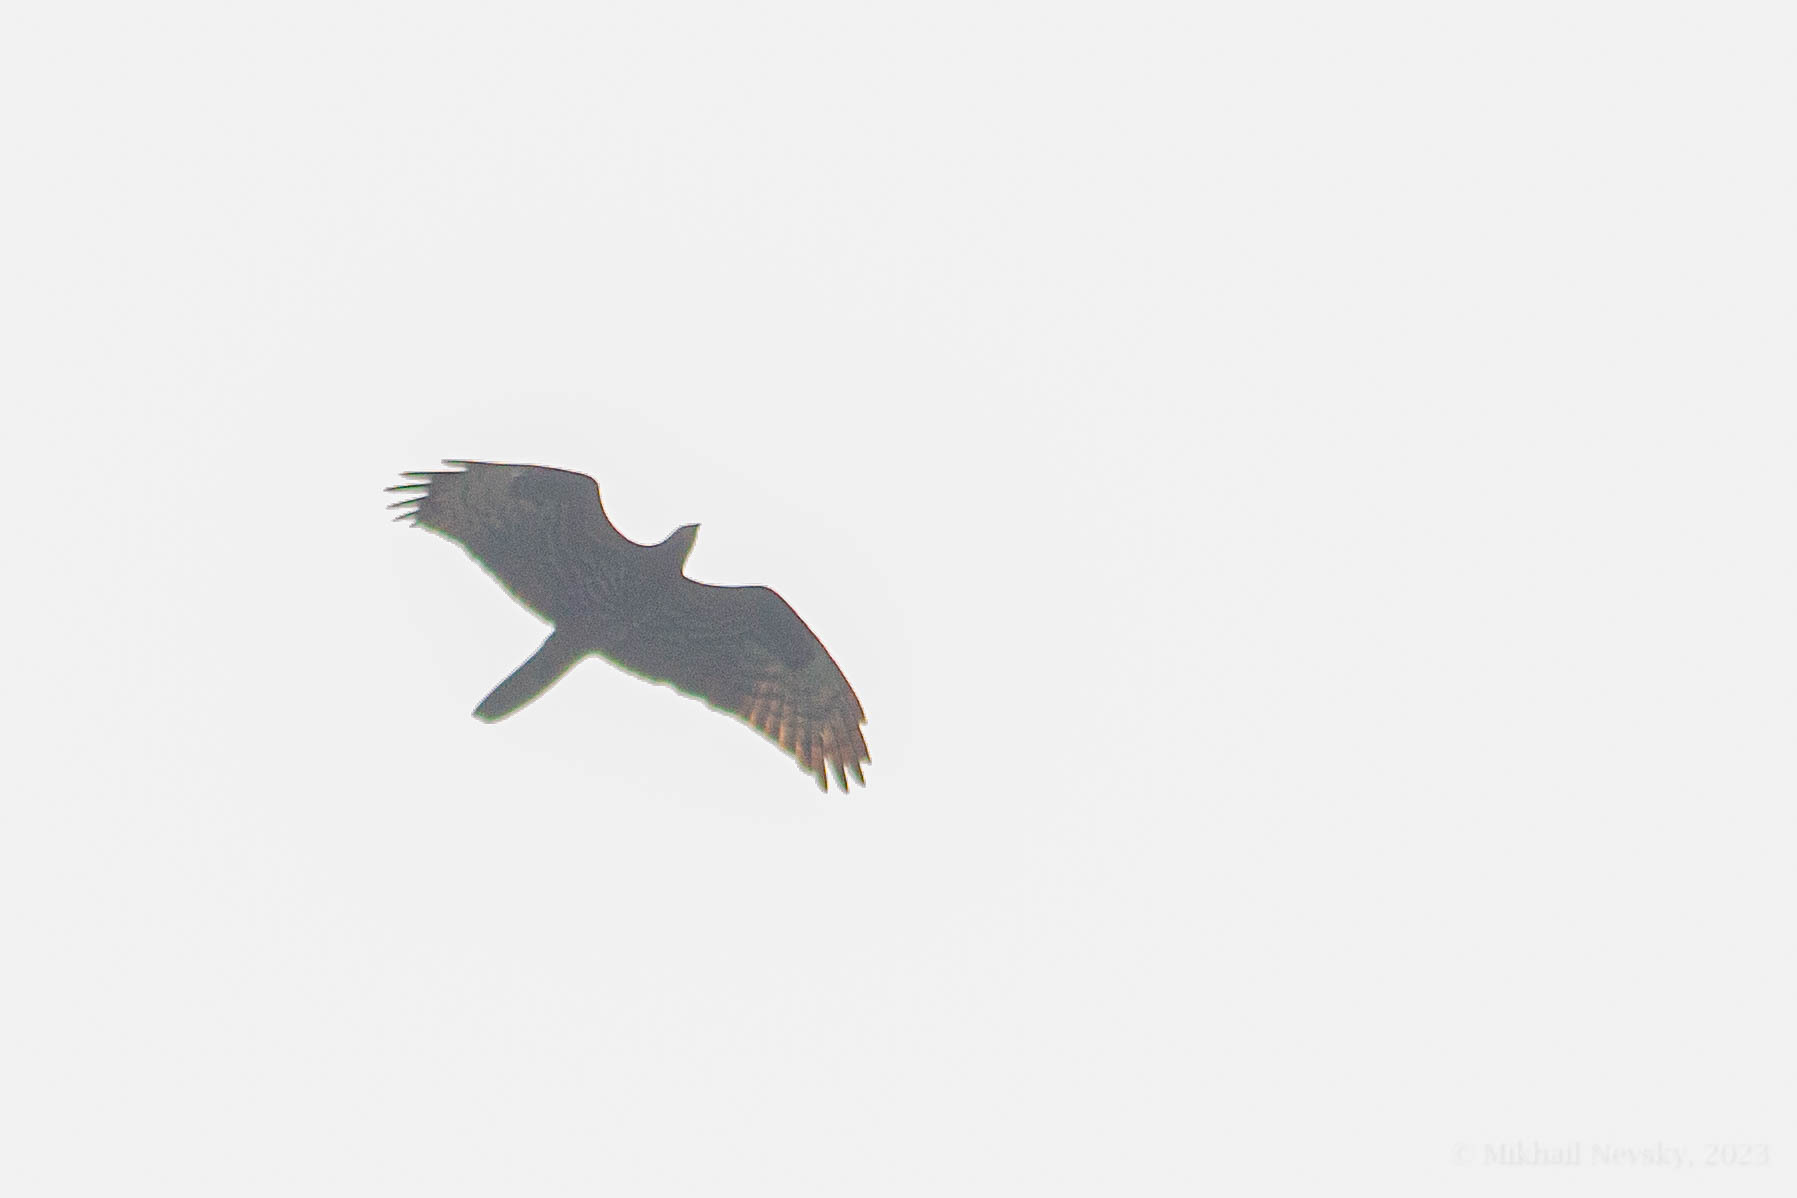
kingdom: Animalia
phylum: Chordata
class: Aves
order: Accipitriformes
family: Accipitridae
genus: Pernis
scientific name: Pernis apivorus
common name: European honey buzzard
